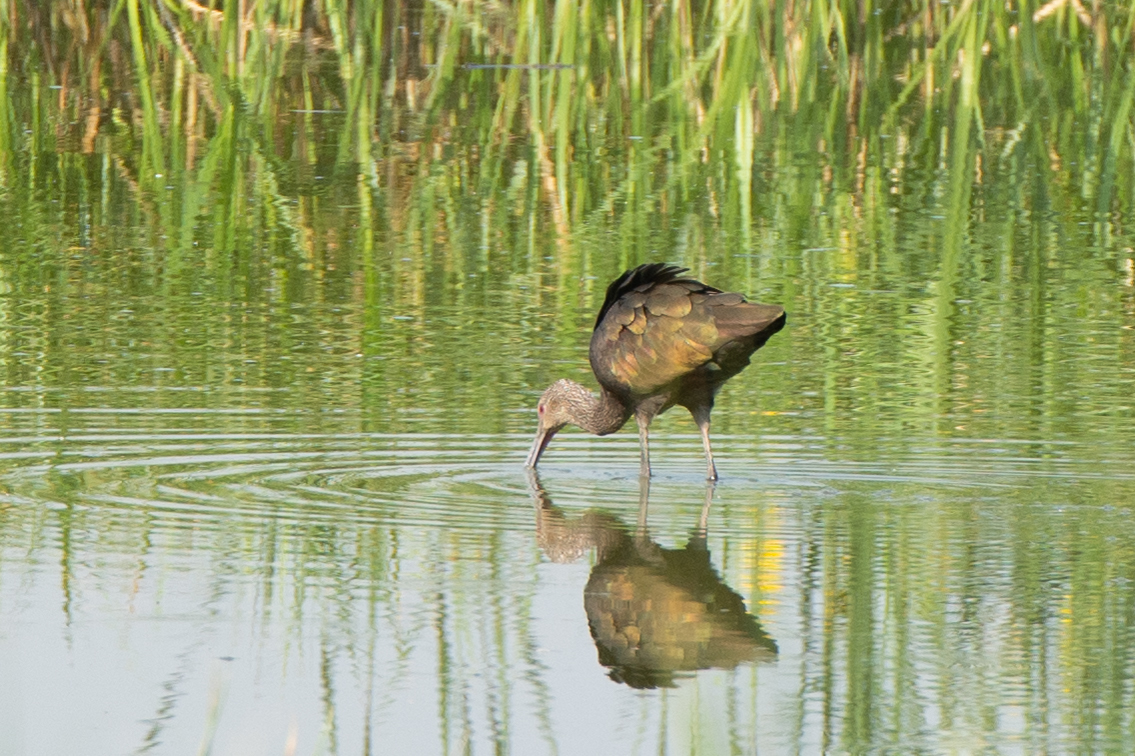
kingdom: Animalia
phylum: Chordata
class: Aves
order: Pelecaniformes
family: Threskiornithidae
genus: Plegadis
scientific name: Plegadis chihi
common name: White-faced ibis
